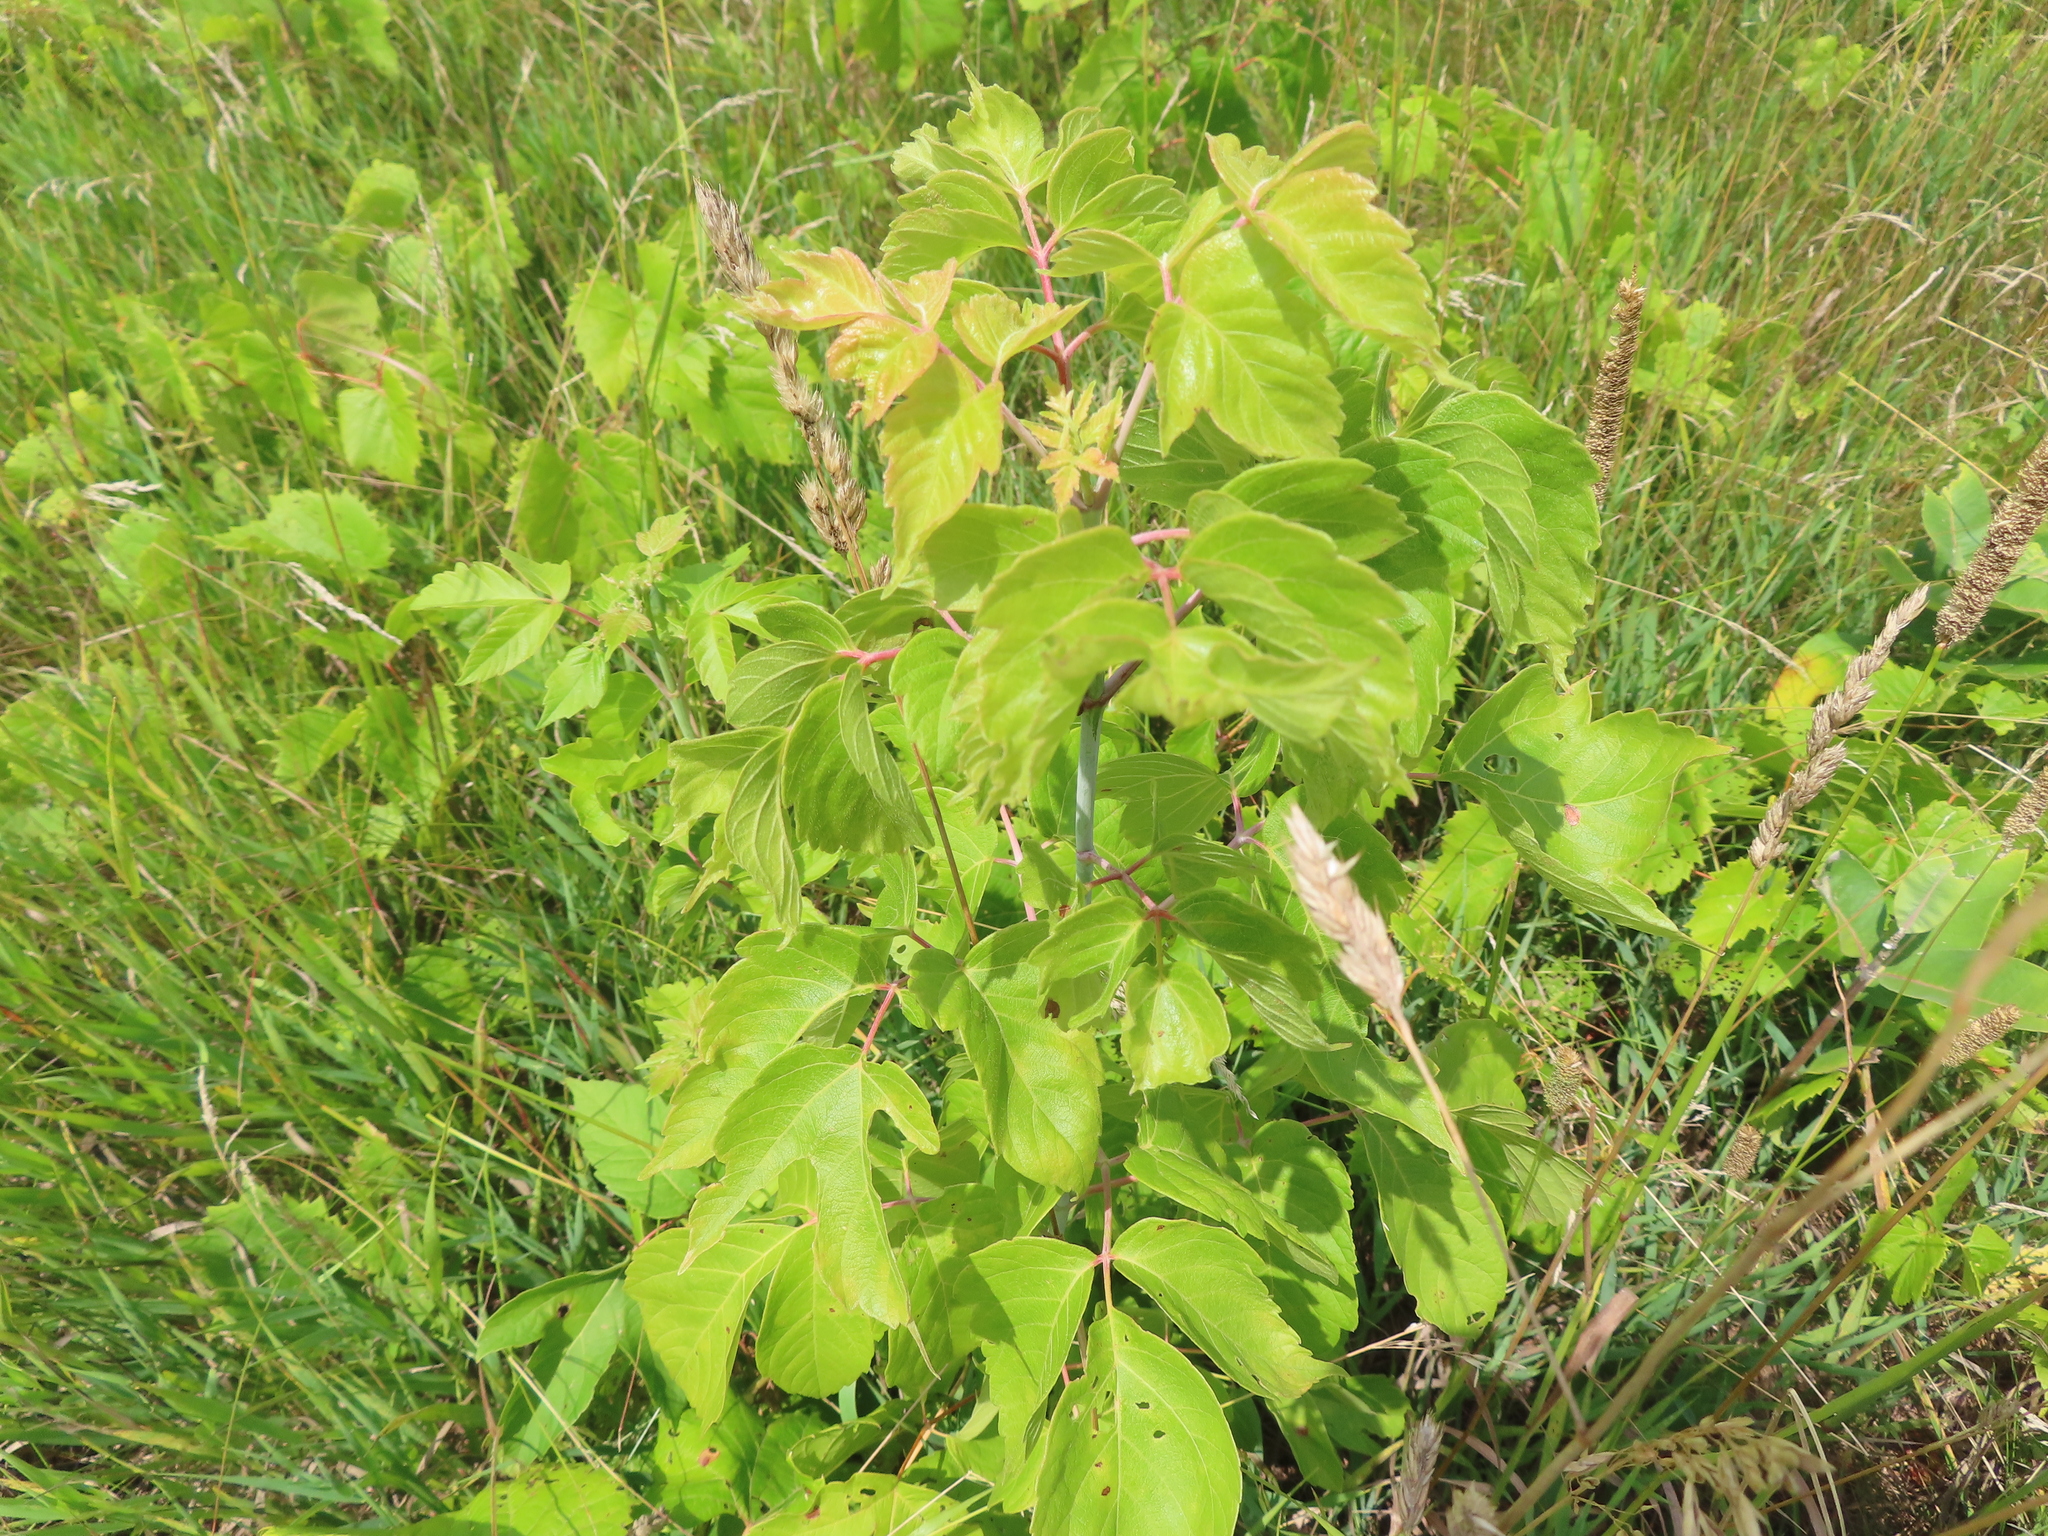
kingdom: Plantae
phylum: Tracheophyta
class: Magnoliopsida
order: Sapindales
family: Sapindaceae
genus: Acer
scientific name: Acer negundo
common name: Ashleaf maple
